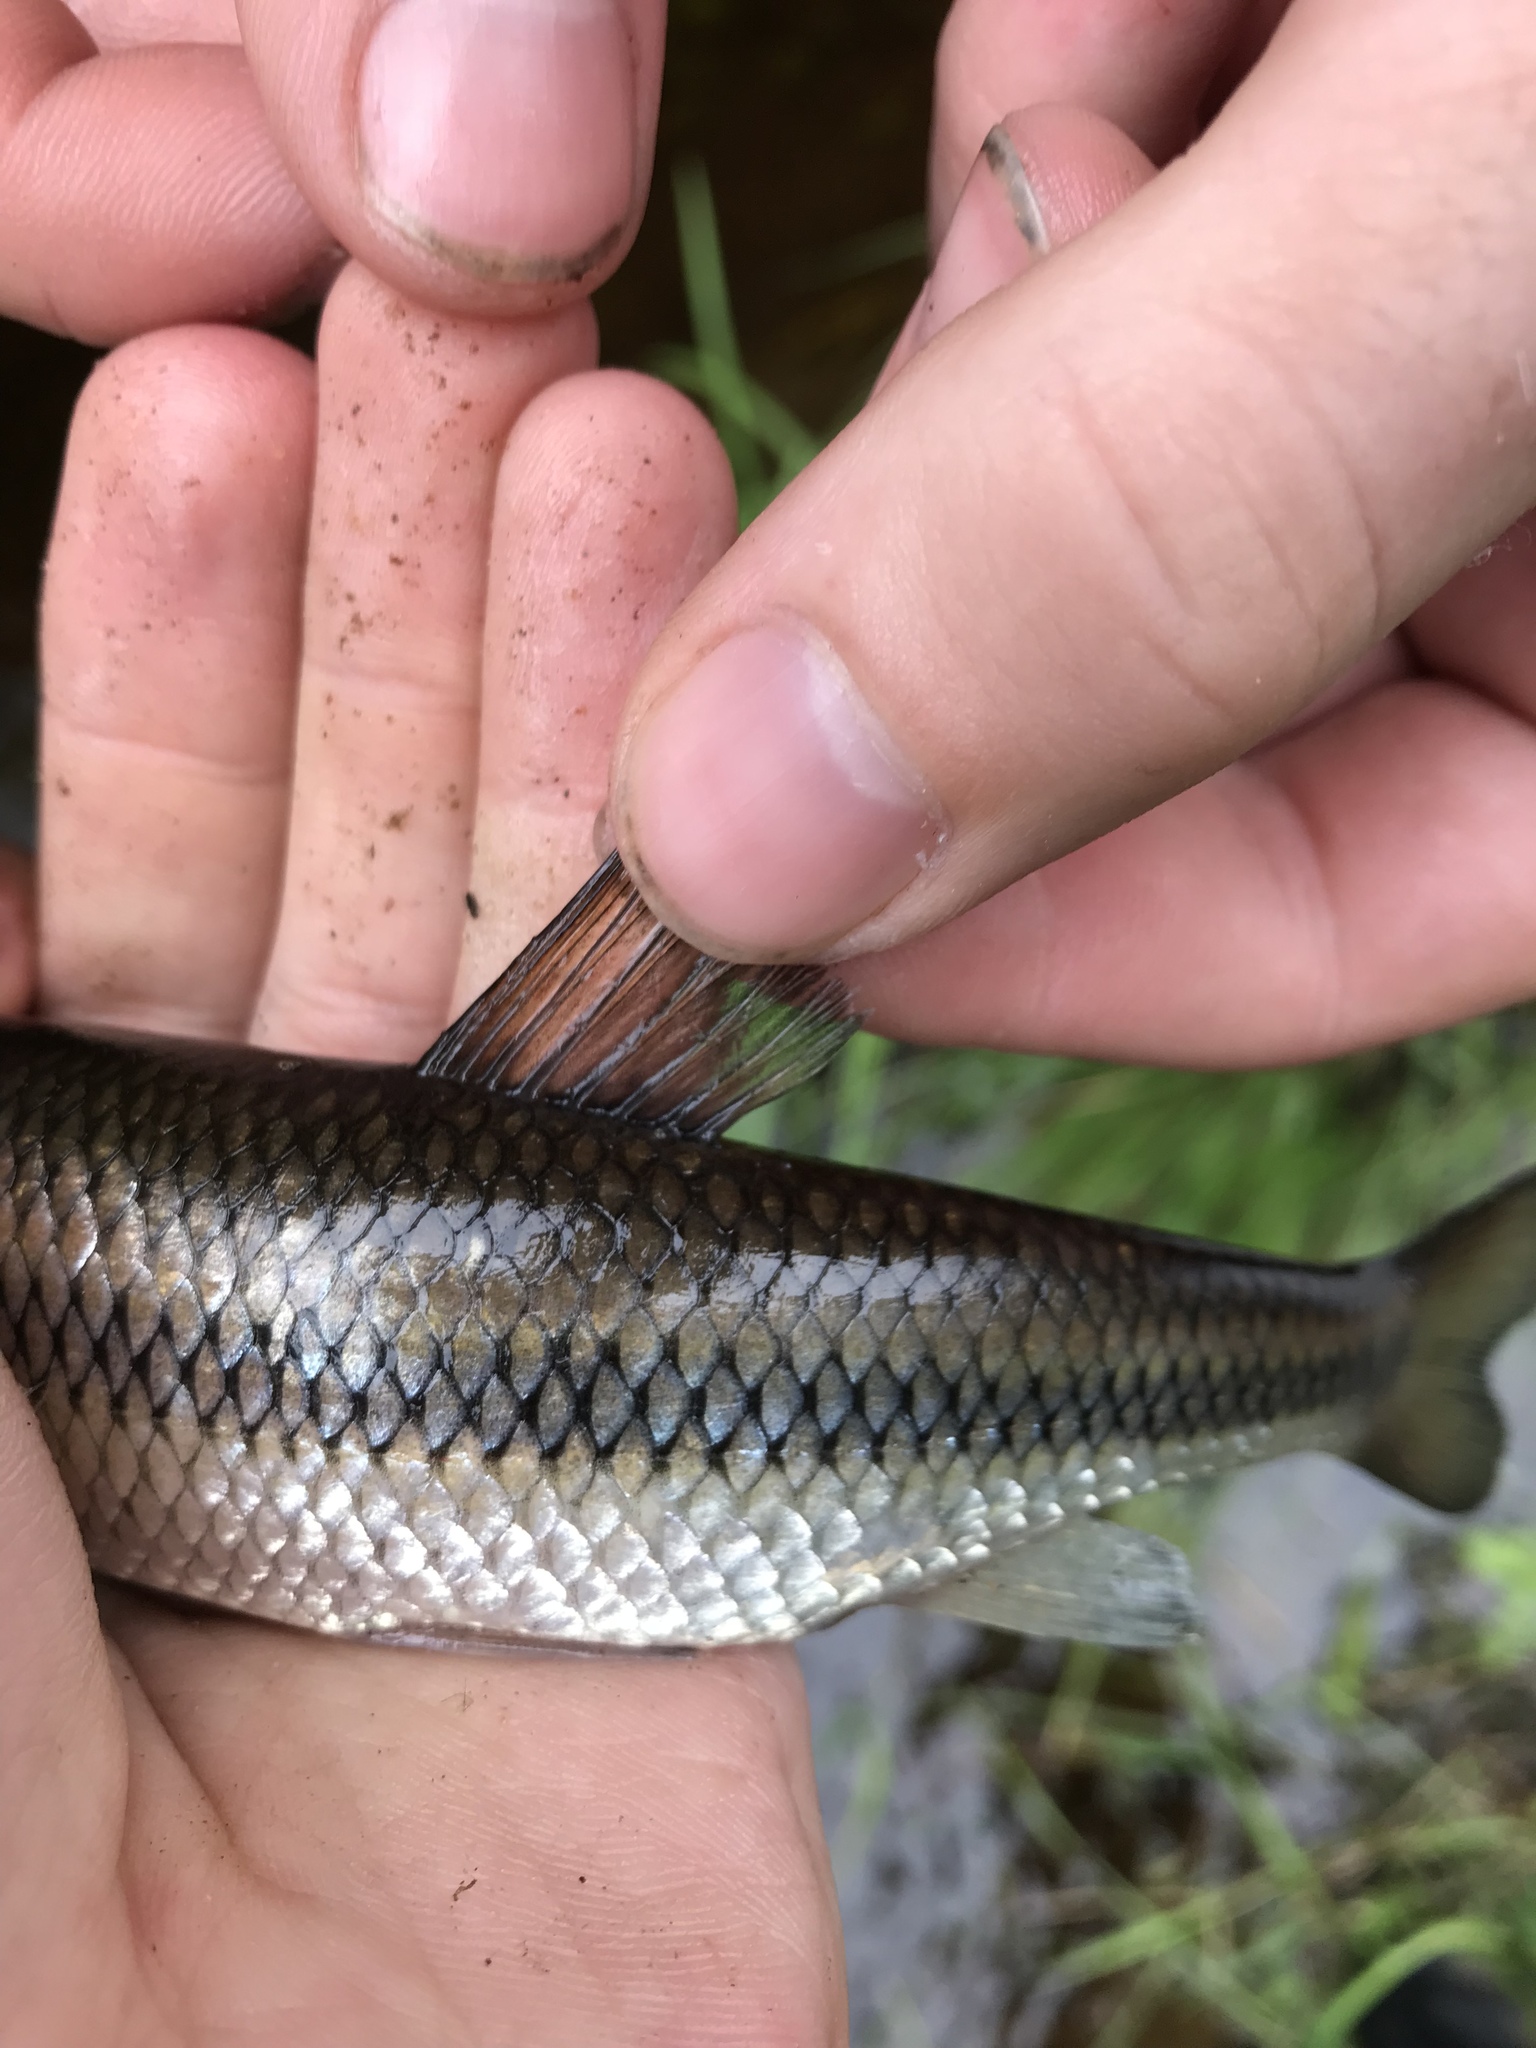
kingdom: Animalia
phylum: Chordata
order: Cypriniformes
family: Cyprinidae
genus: Semotilus
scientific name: Semotilus corporalis
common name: Fallfish
